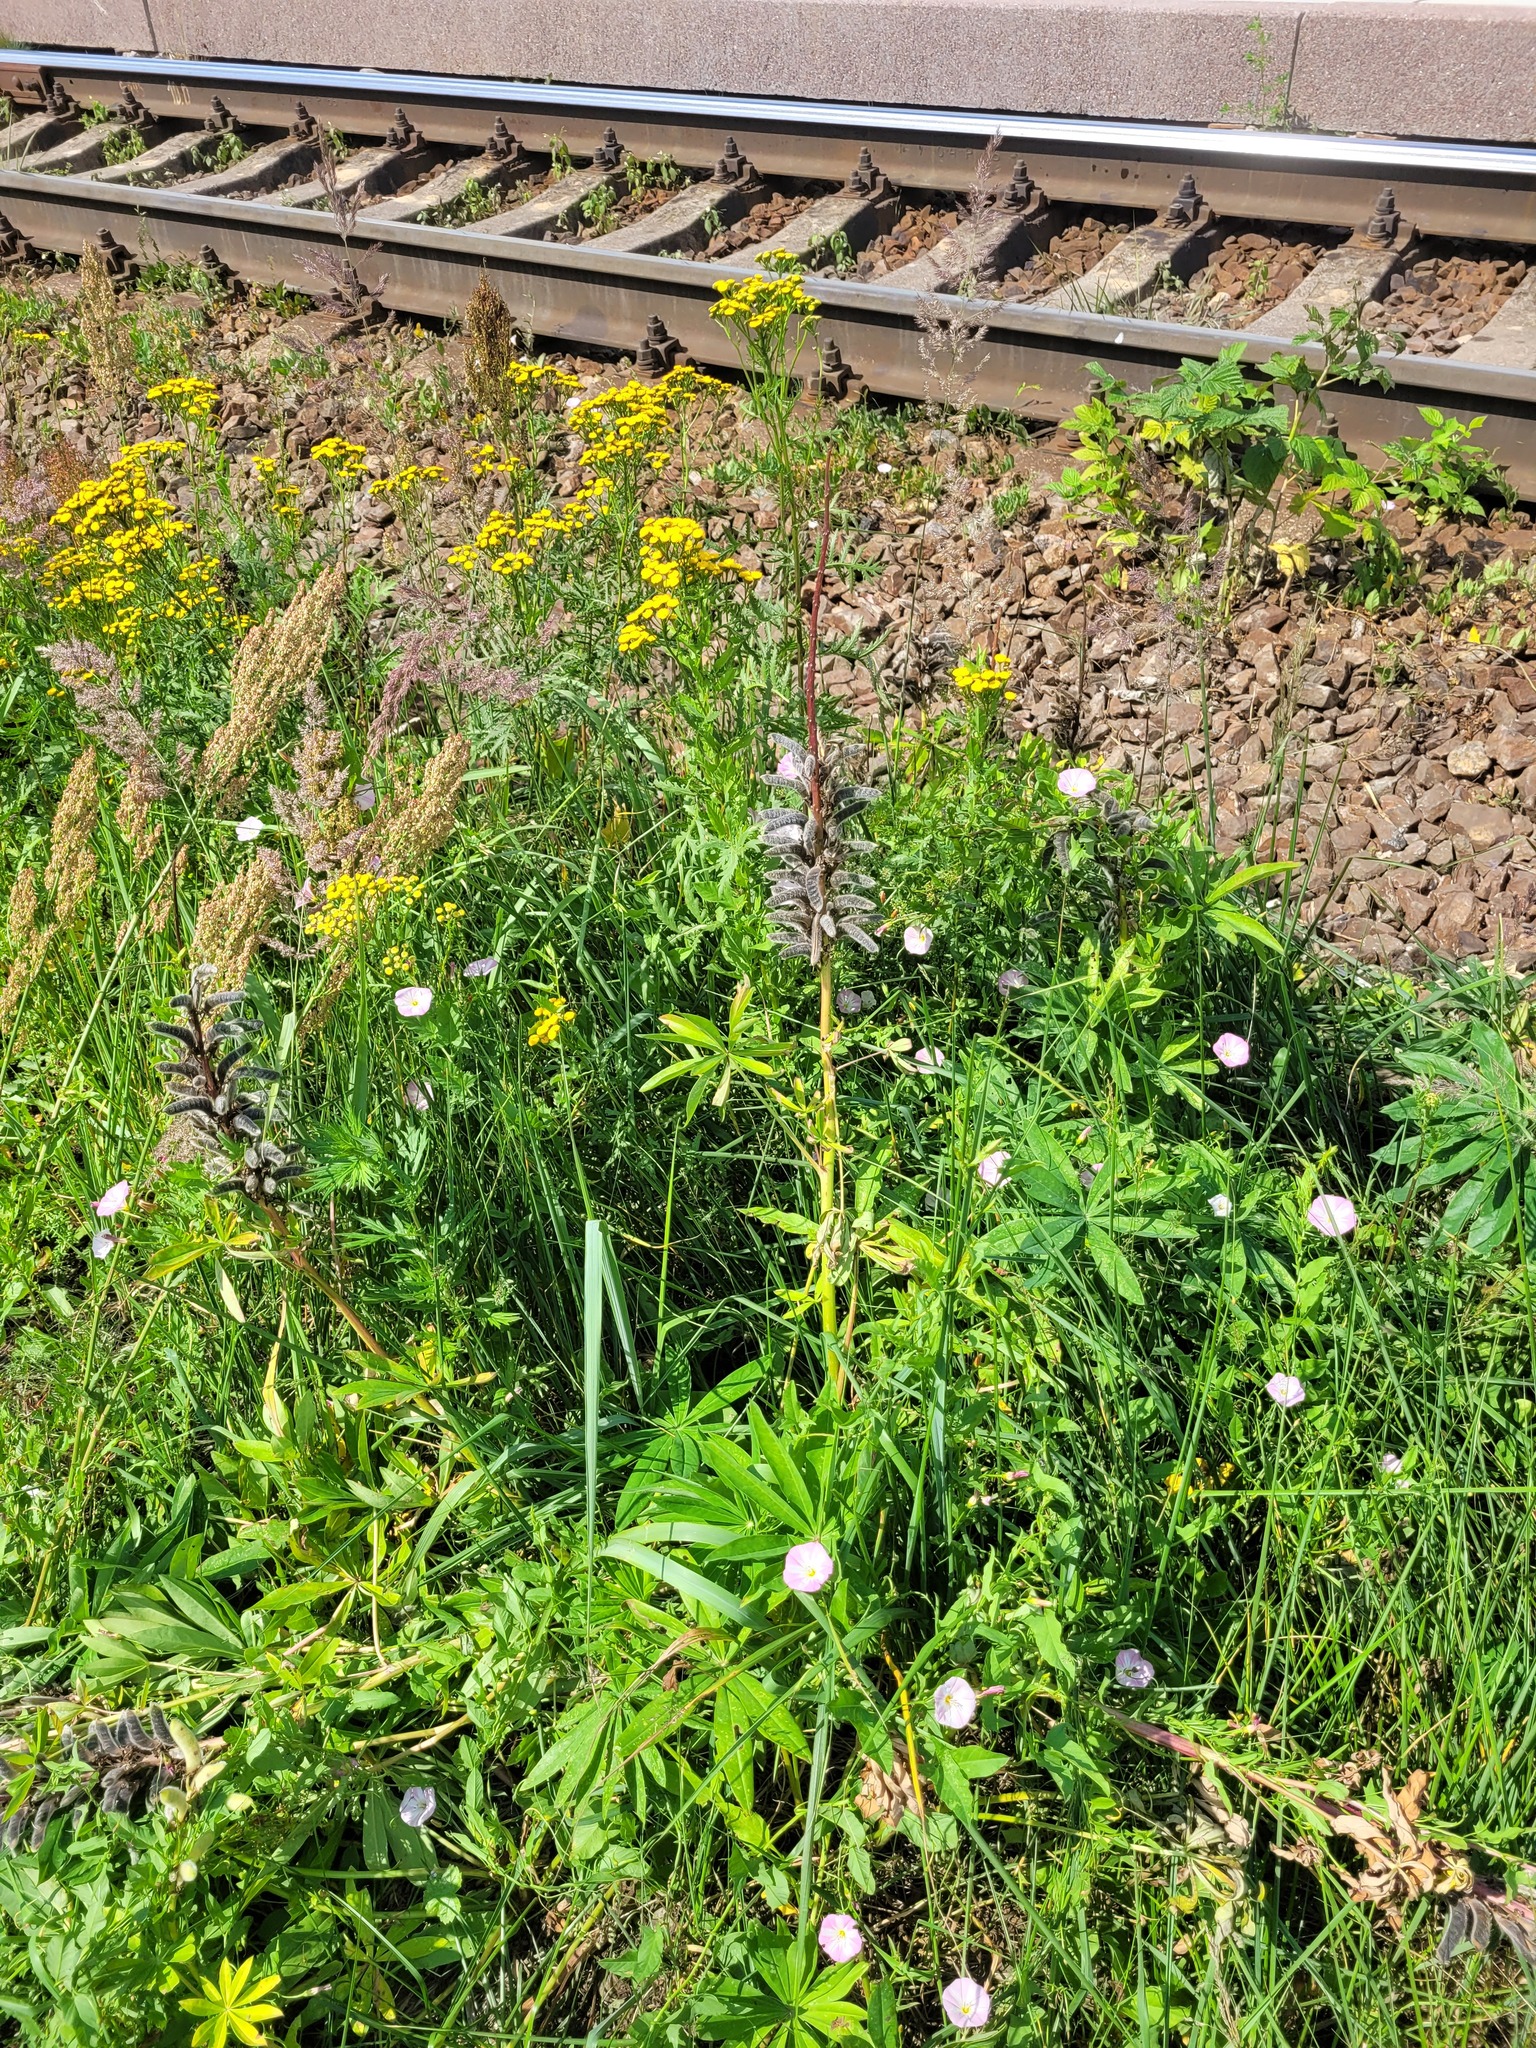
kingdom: Plantae
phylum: Tracheophyta
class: Magnoliopsida
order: Fabales
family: Fabaceae
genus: Lupinus
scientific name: Lupinus polyphyllus
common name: Garden lupin
